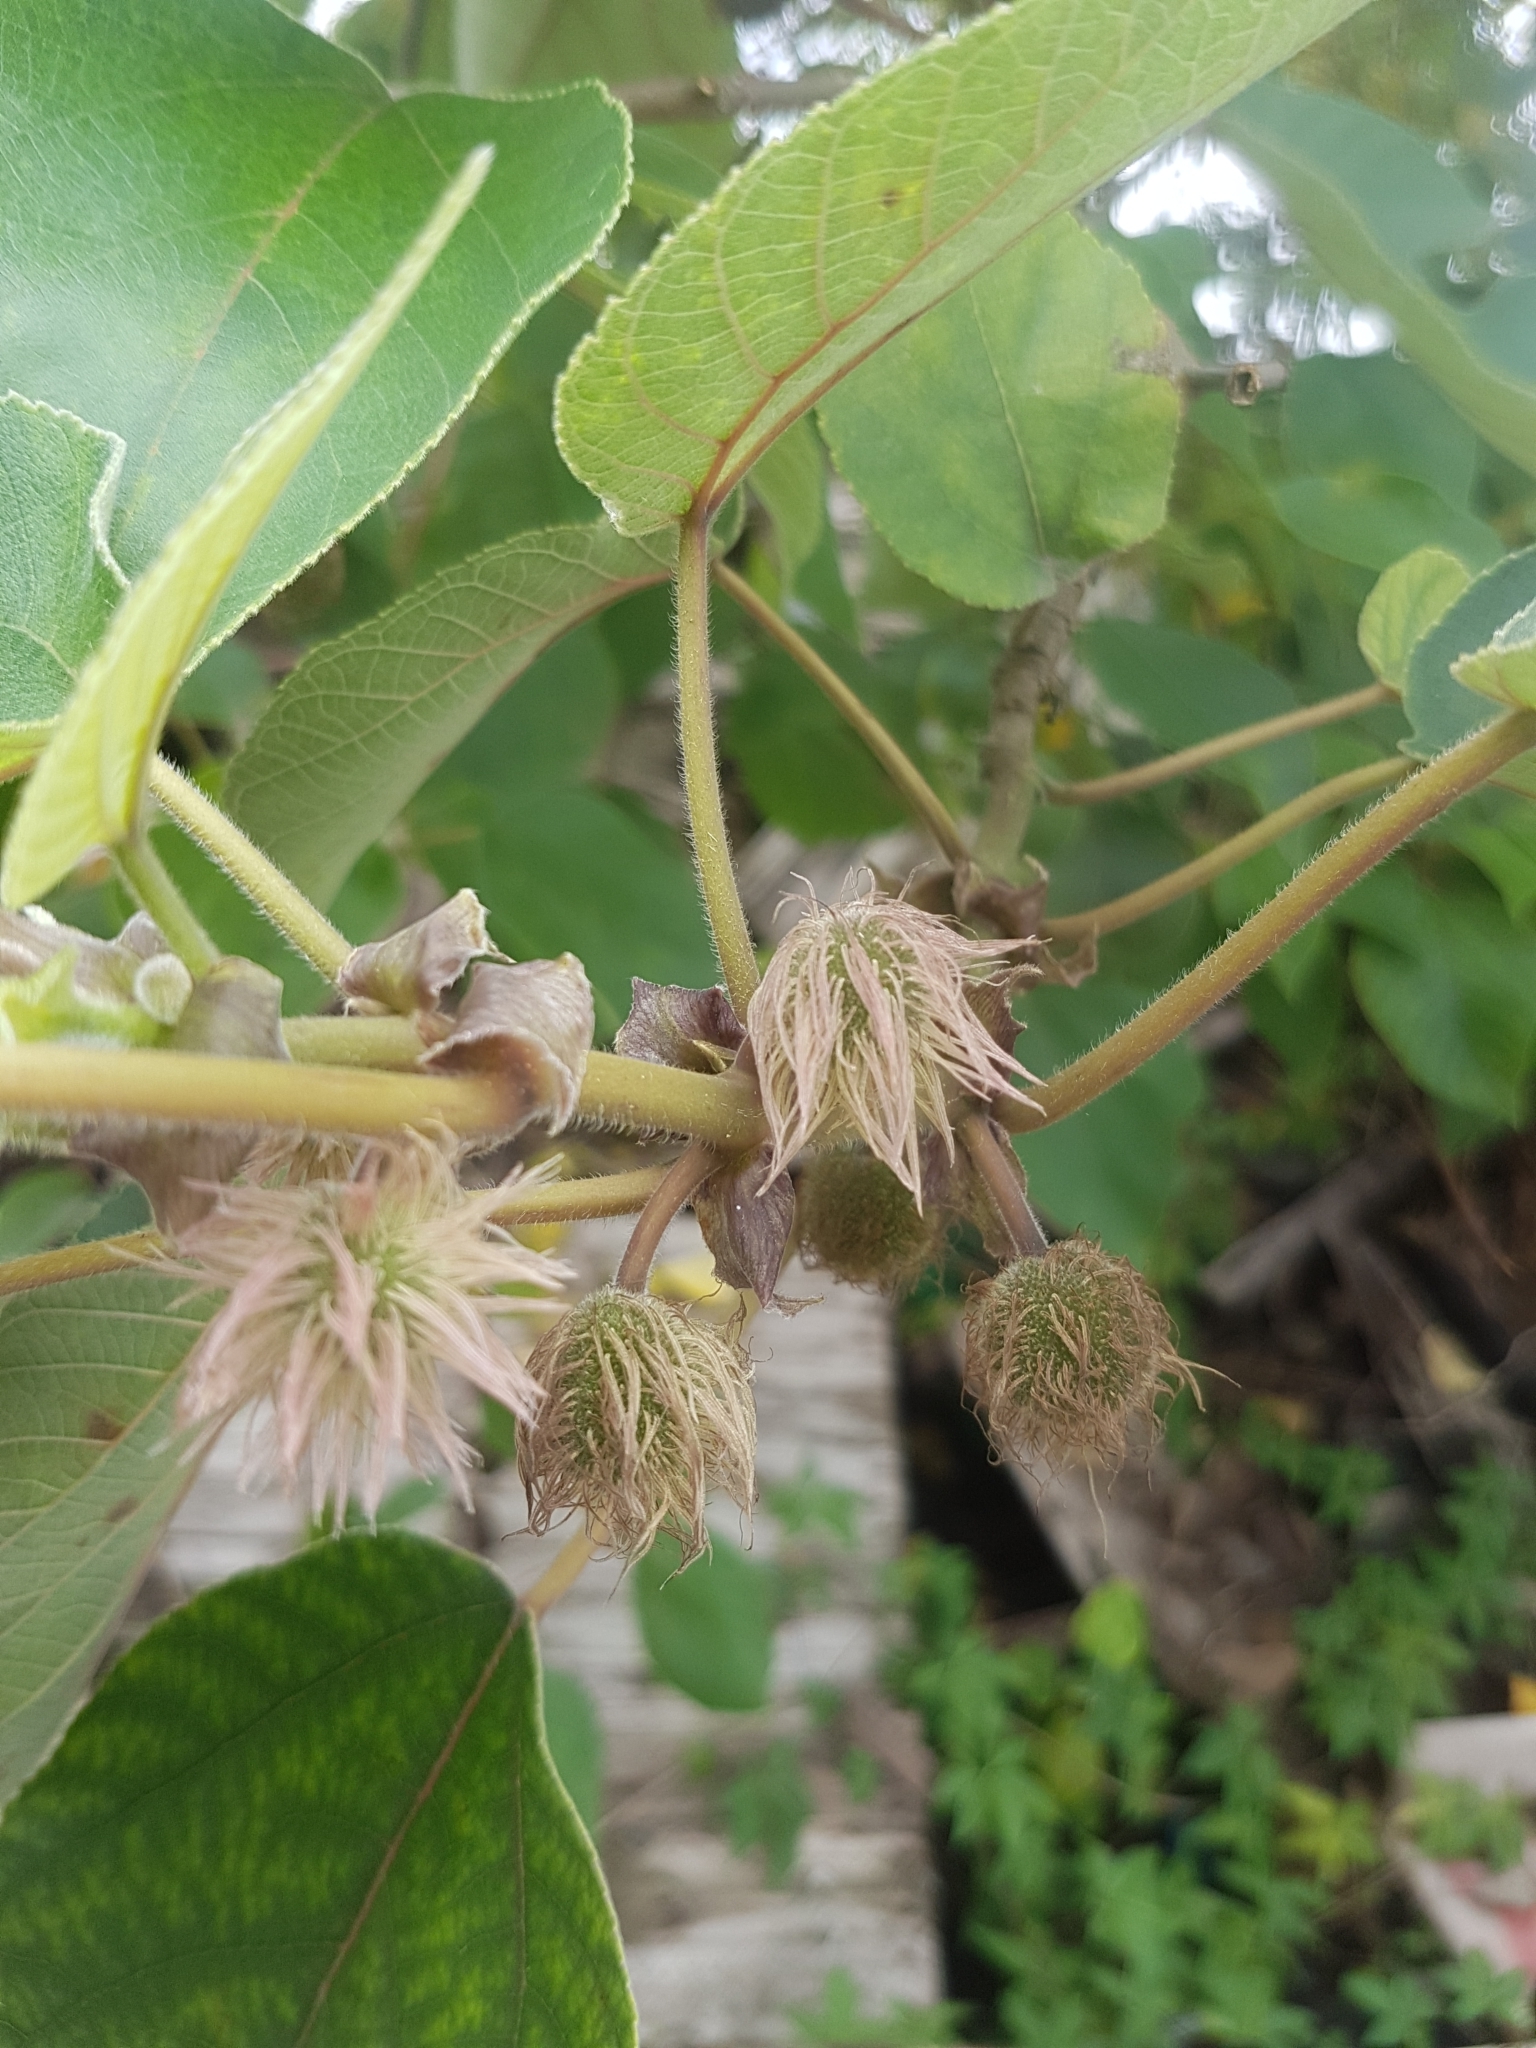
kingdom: Plantae
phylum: Tracheophyta
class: Magnoliopsida
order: Rosales
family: Moraceae
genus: Broussonetia
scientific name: Broussonetia papyrifera
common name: Paper mulberry
